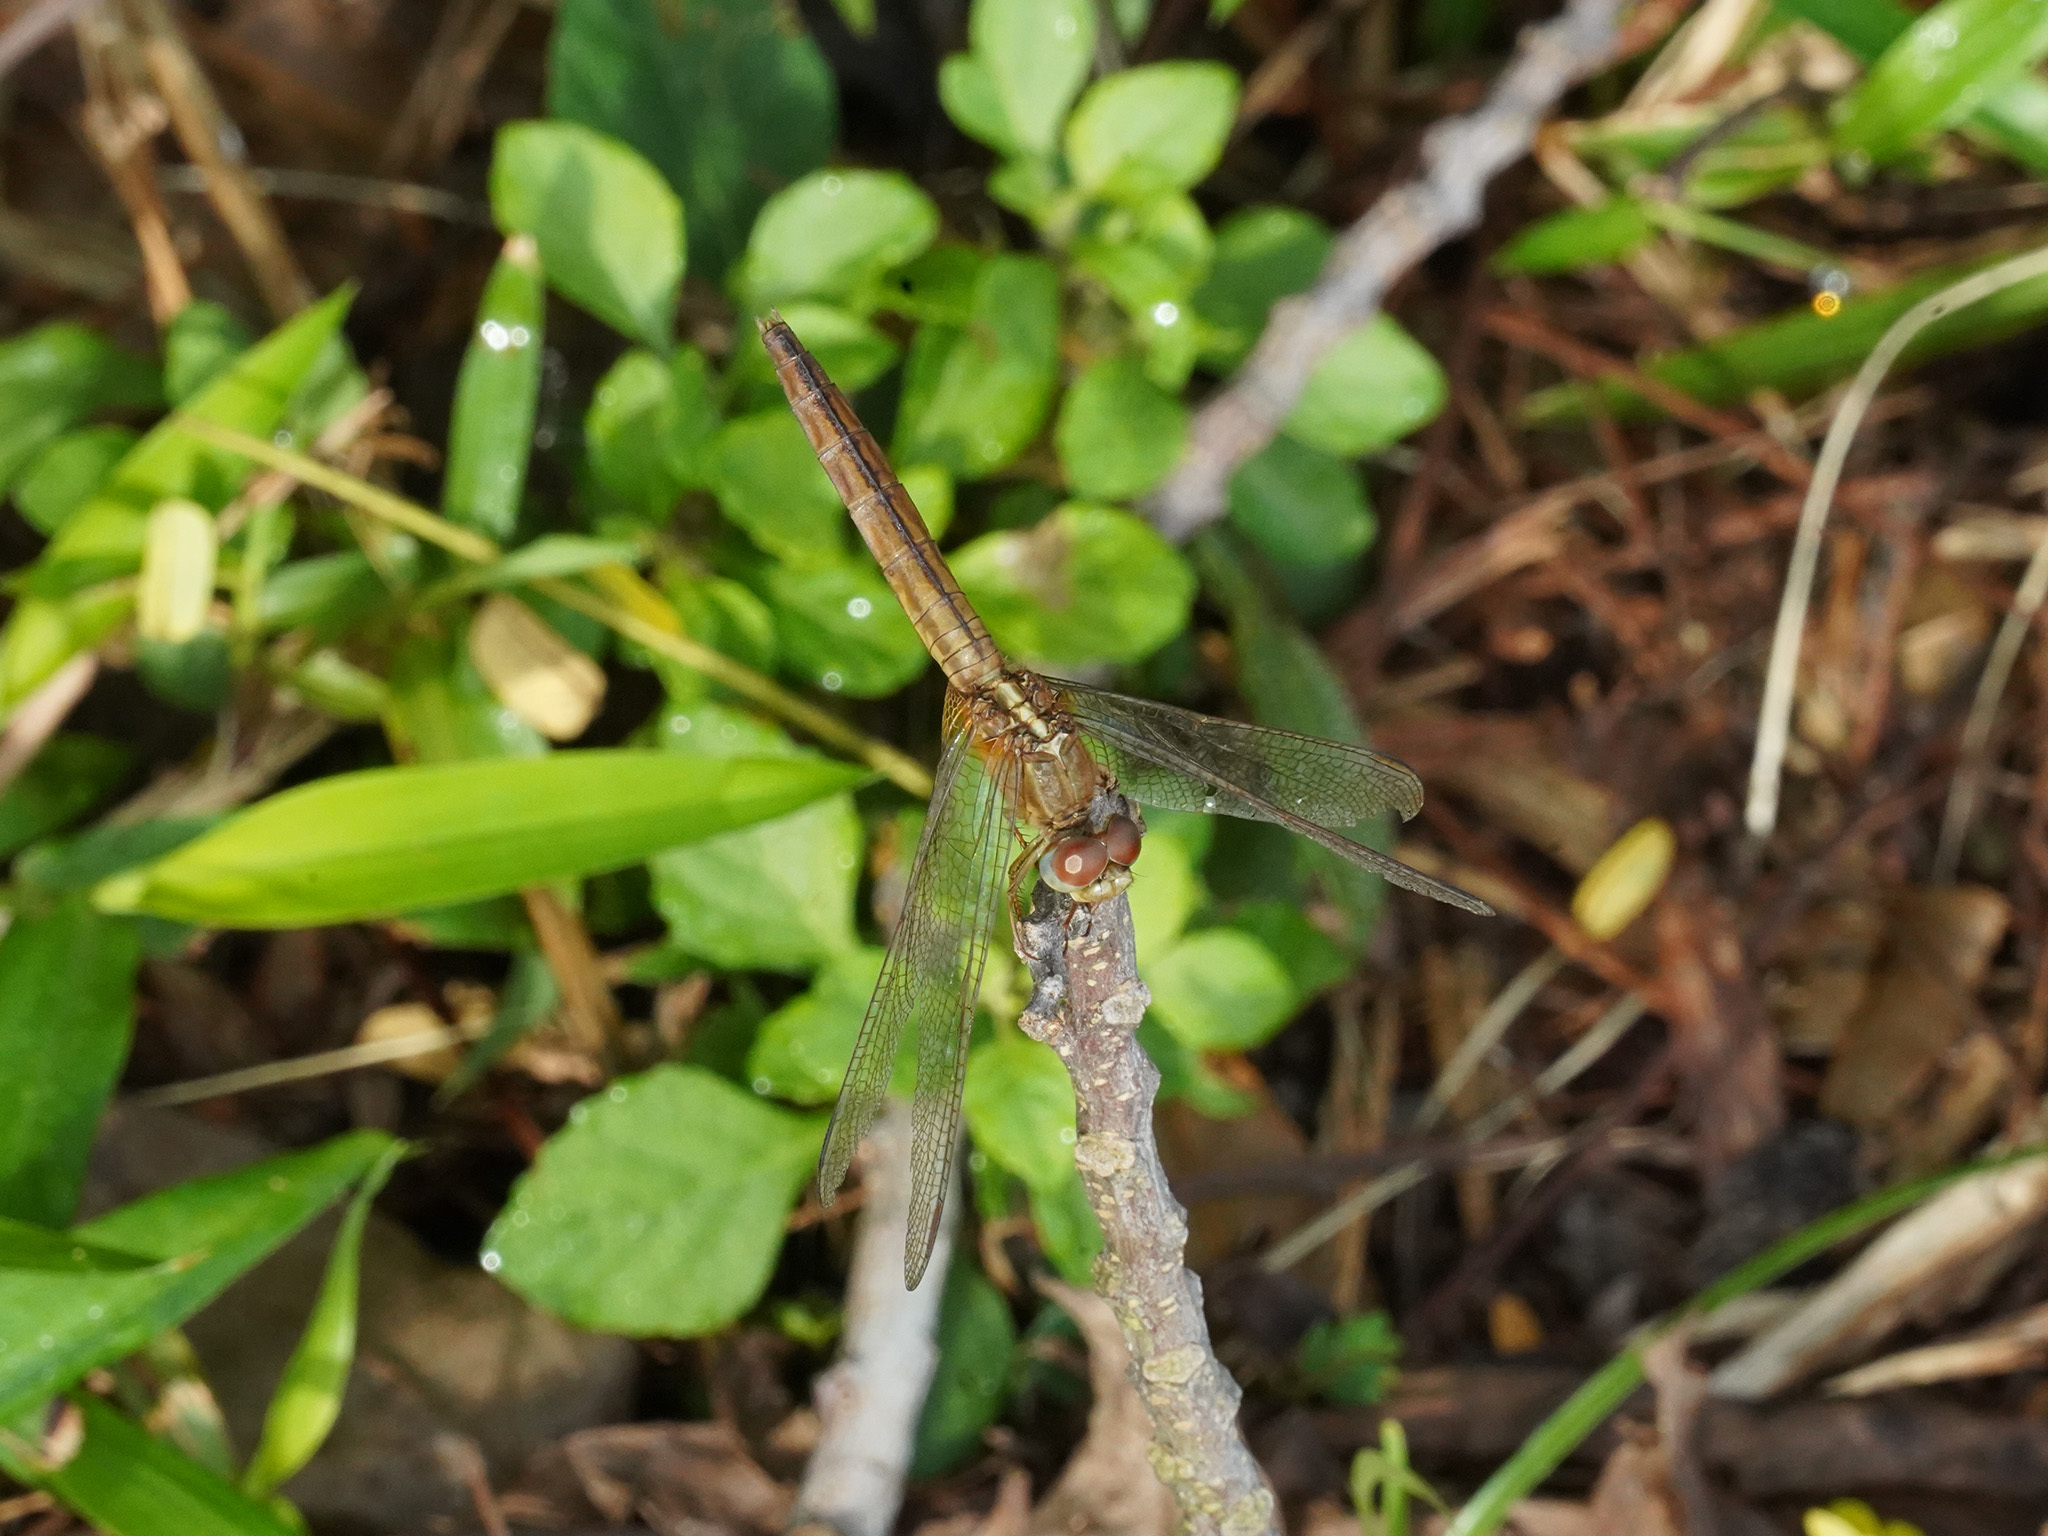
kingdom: Animalia
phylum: Arthropoda
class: Insecta
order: Odonata
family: Libellulidae
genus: Crocothemis
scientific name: Crocothemis servilia
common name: Scarlet skimmer
